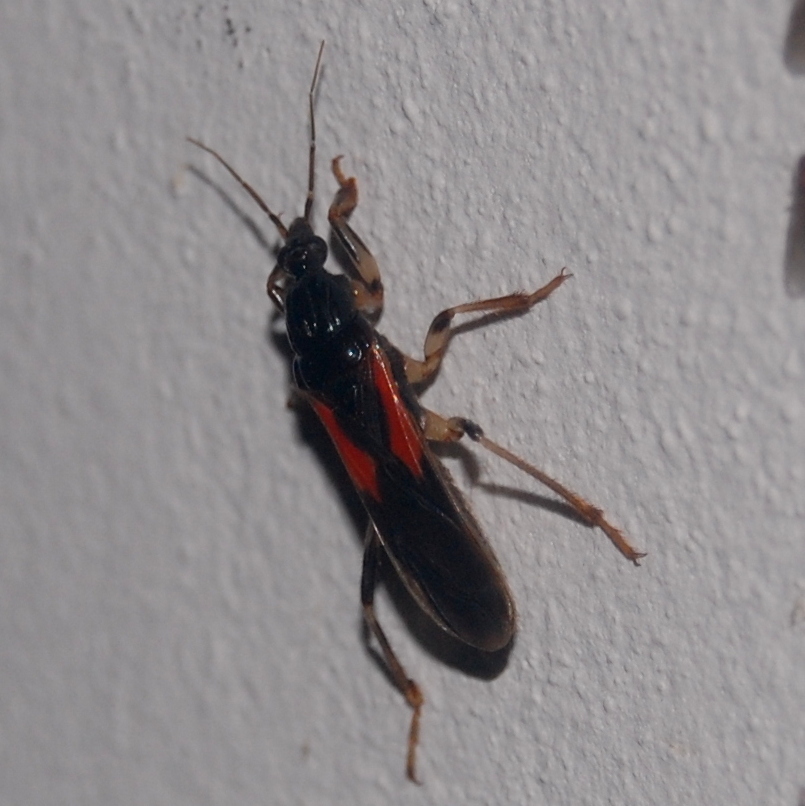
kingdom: Animalia
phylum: Arthropoda
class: Insecta
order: Hemiptera
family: Reduviidae
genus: Sirthenea
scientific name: Sirthenea stria
